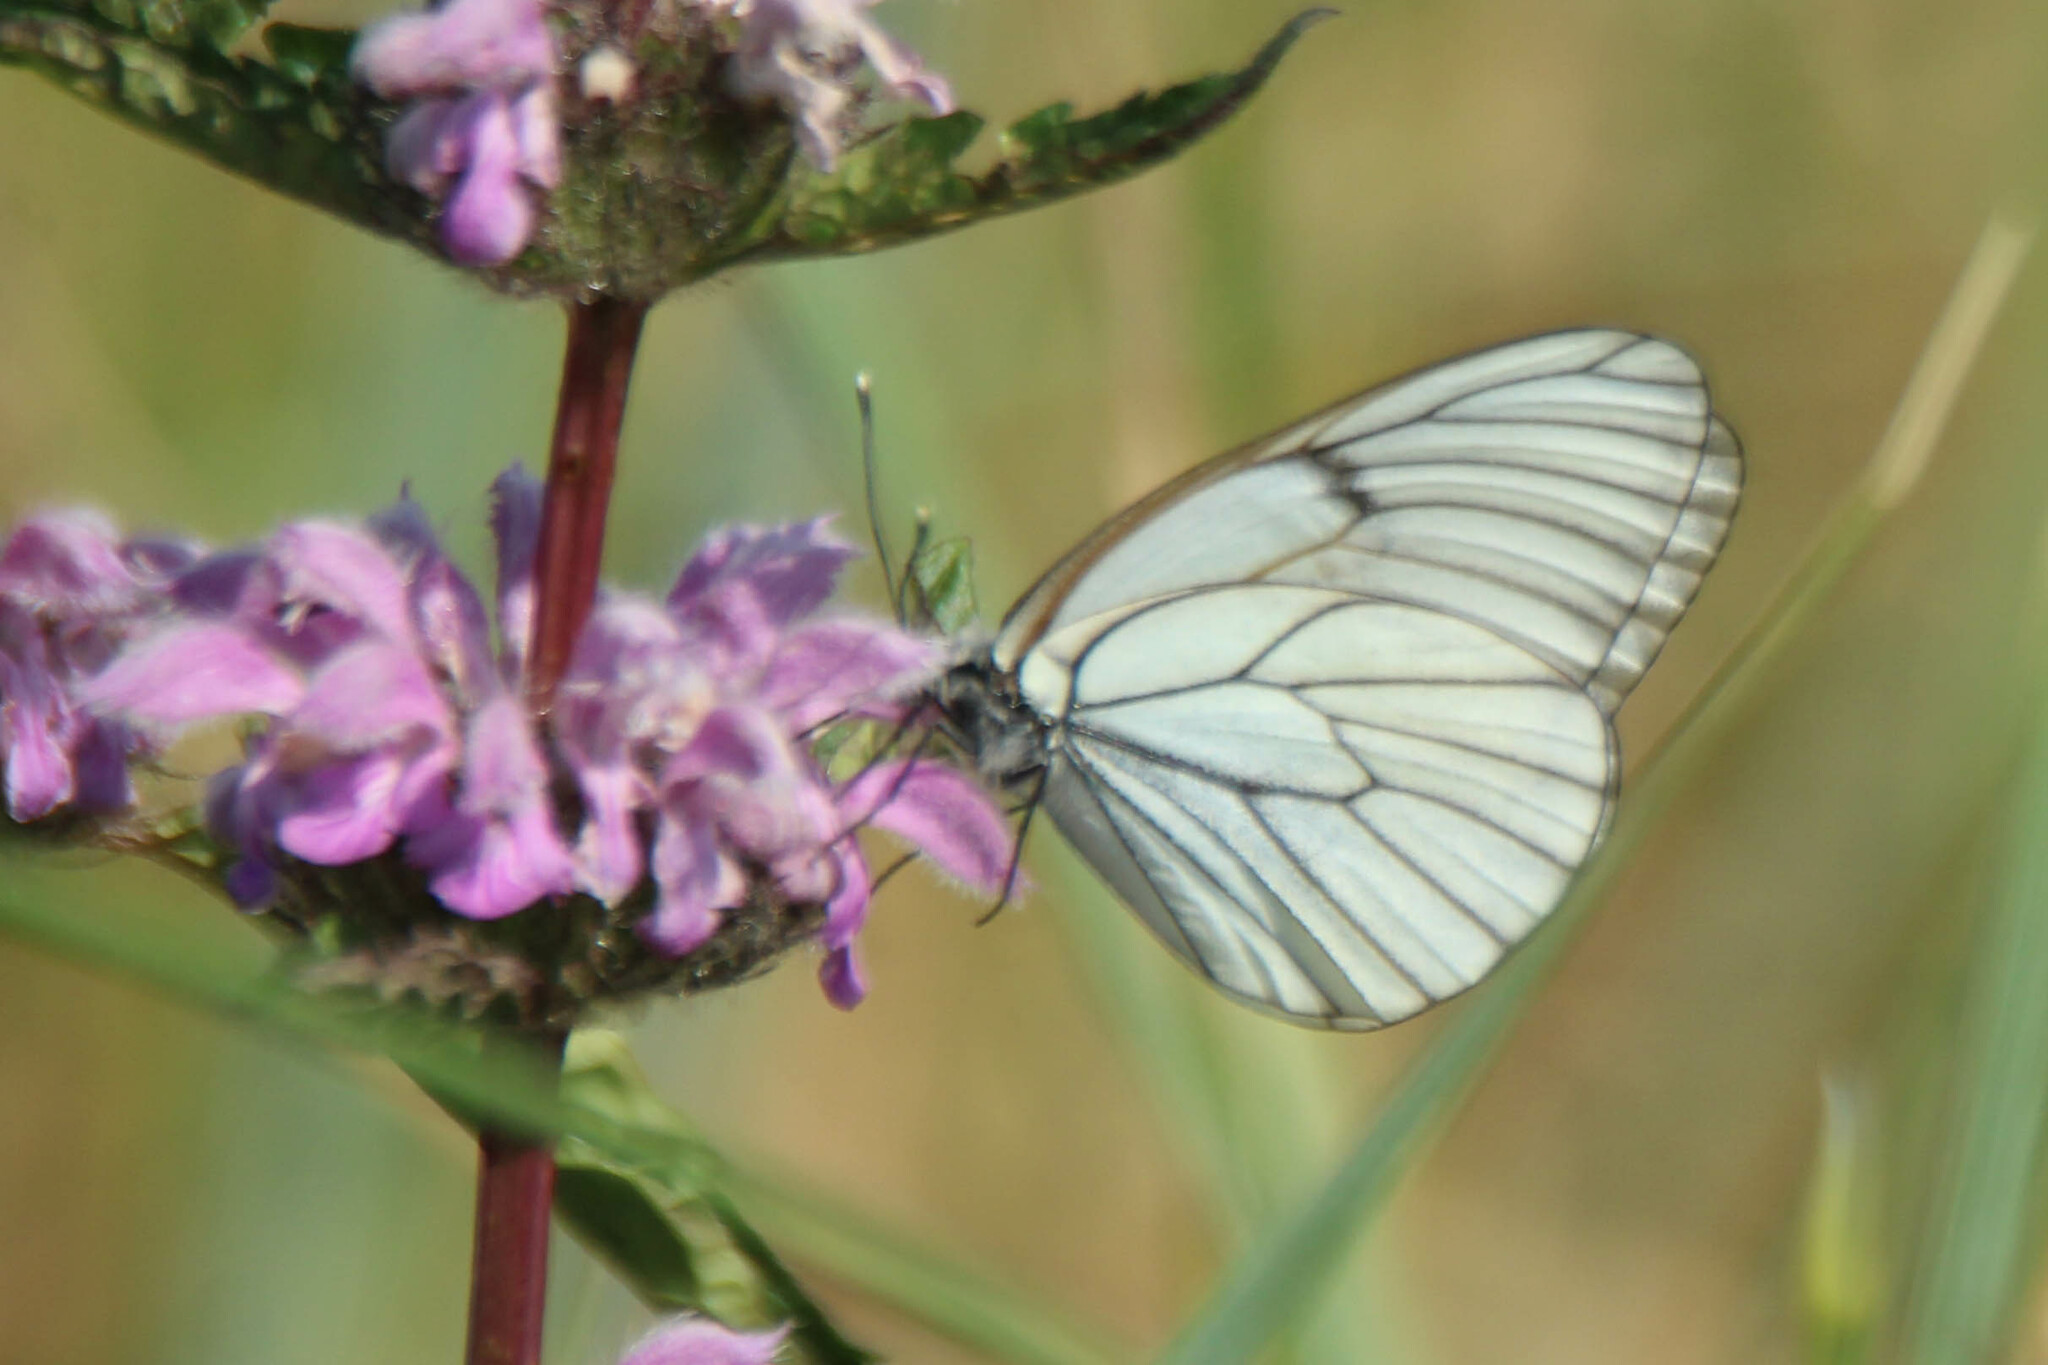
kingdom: Animalia
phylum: Arthropoda
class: Insecta
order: Lepidoptera
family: Pieridae
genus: Aporia
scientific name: Aporia crataegi
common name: Black-veined white
